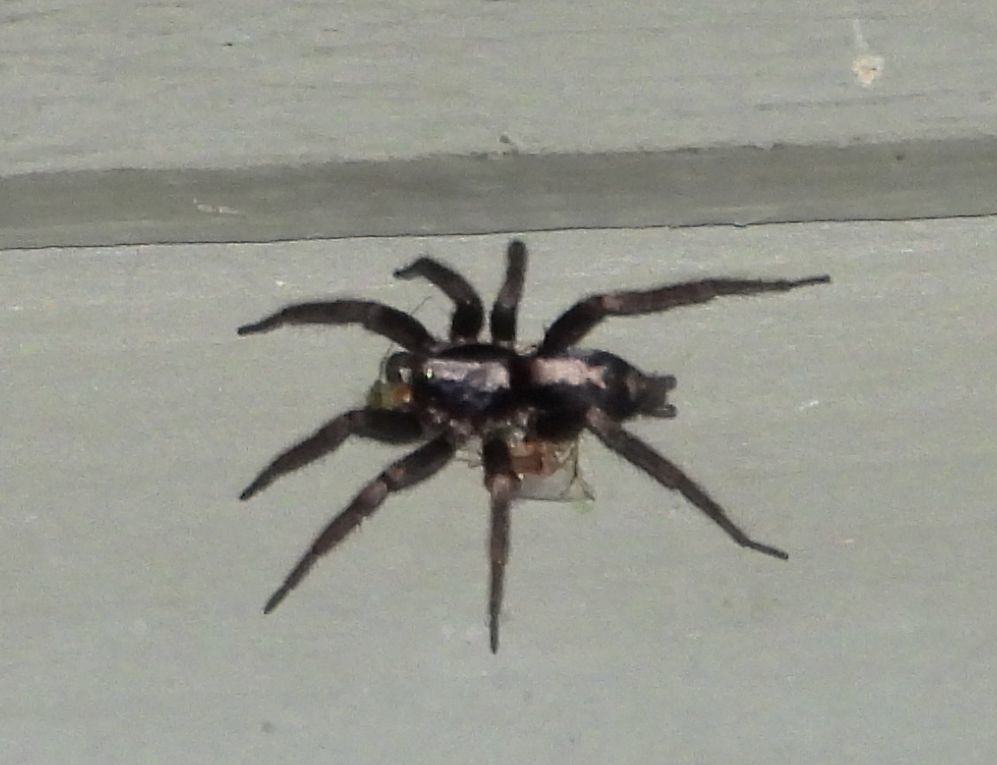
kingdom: Animalia
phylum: Arthropoda
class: Arachnida
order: Araneae
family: Gnaphosidae
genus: Herpyllus
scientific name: Herpyllus ecclesiasticus
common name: Eastern parson spider
